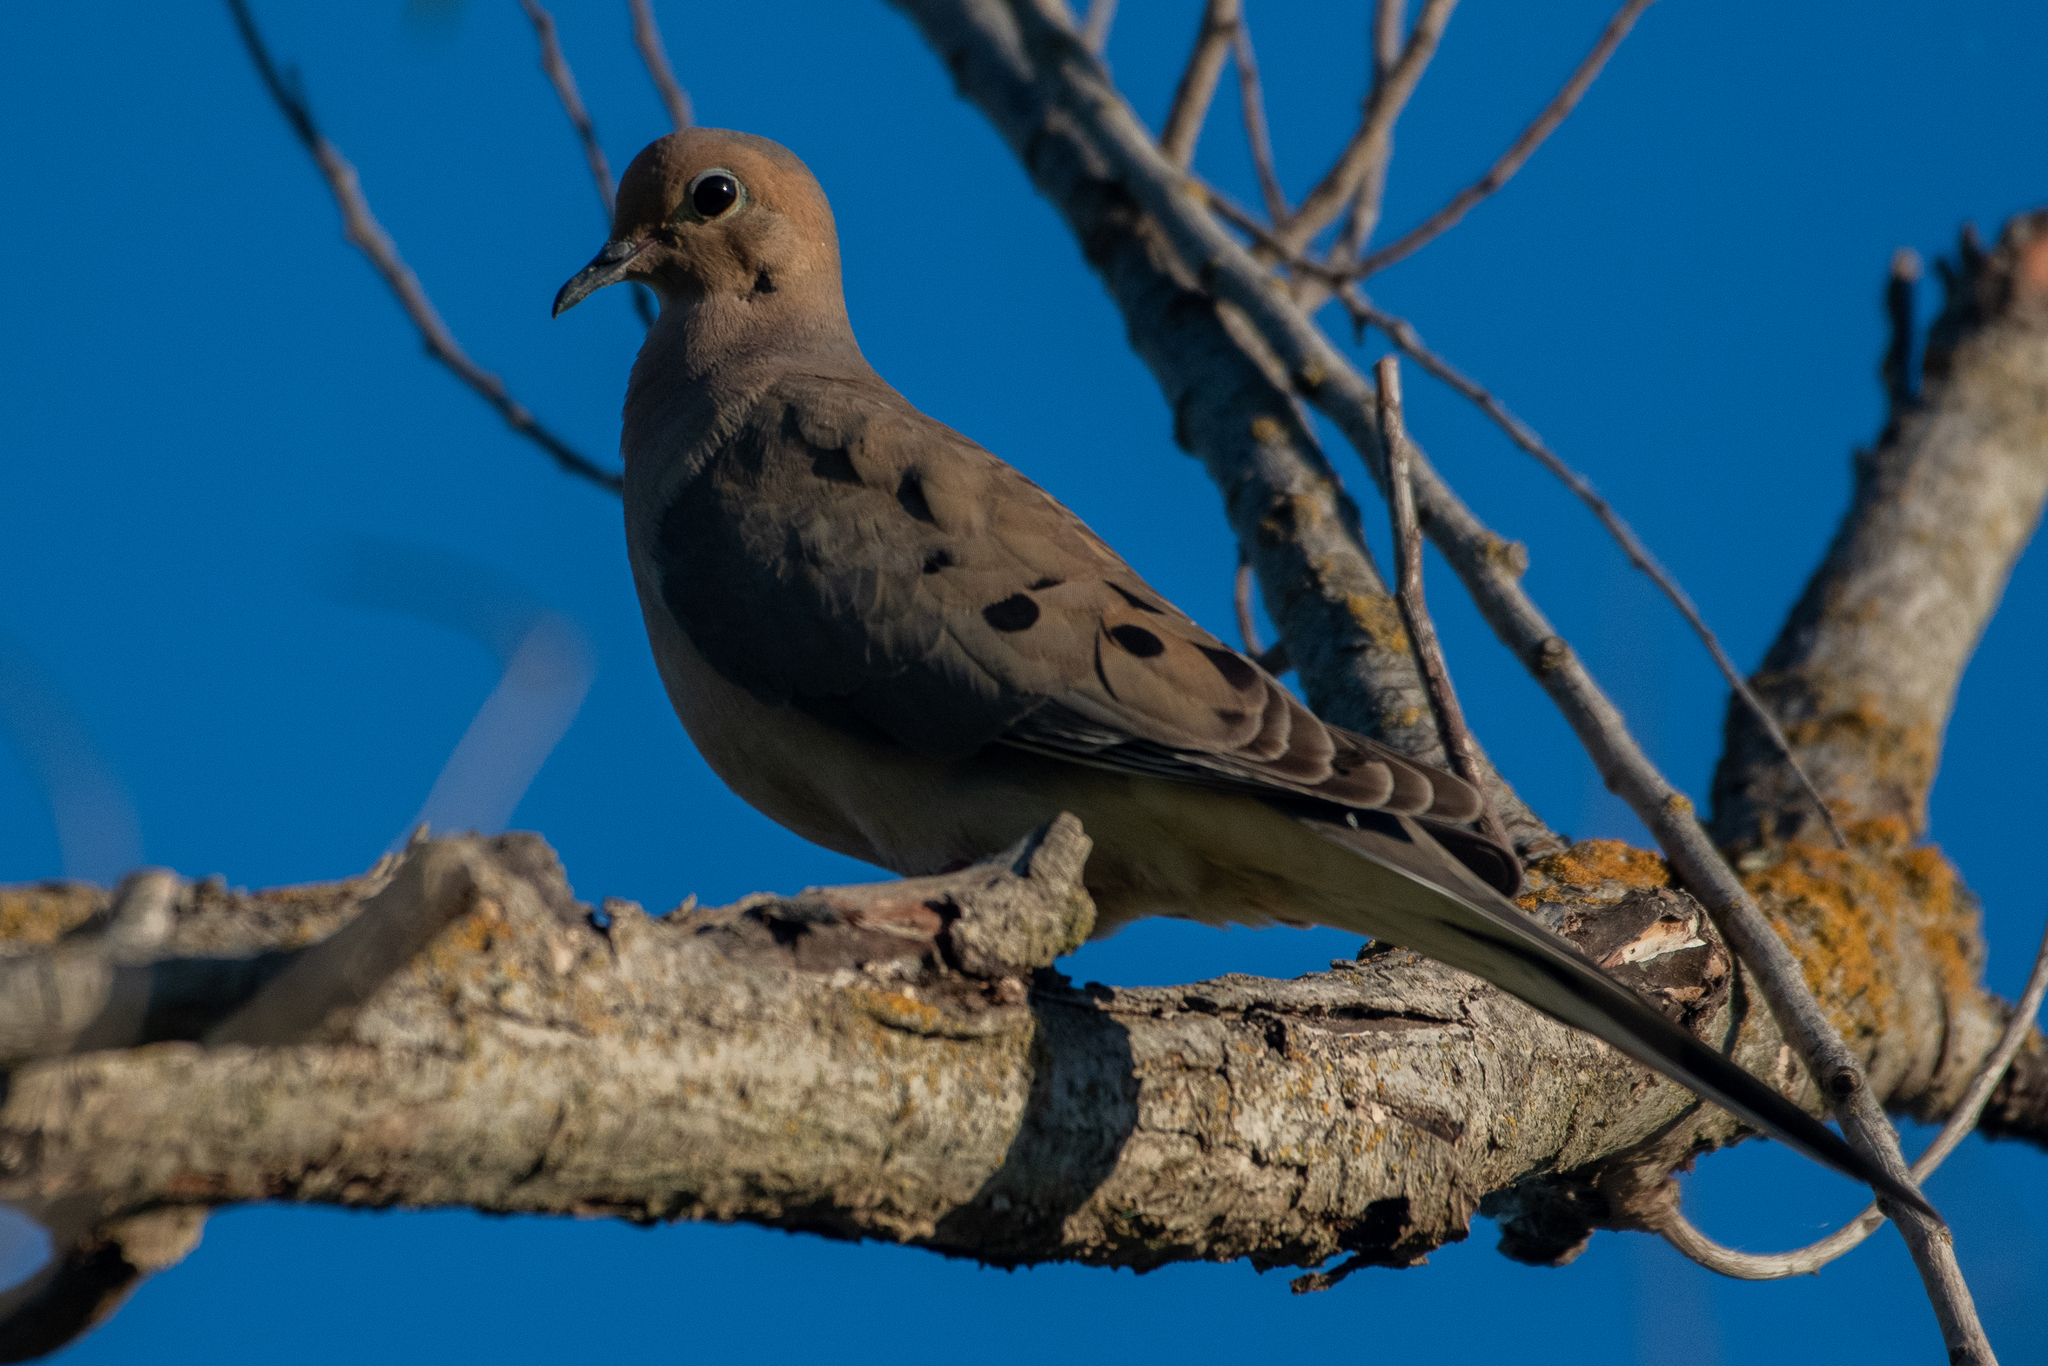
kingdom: Animalia
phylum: Chordata
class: Aves
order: Columbiformes
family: Columbidae
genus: Zenaida
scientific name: Zenaida macroura
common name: Mourning dove
